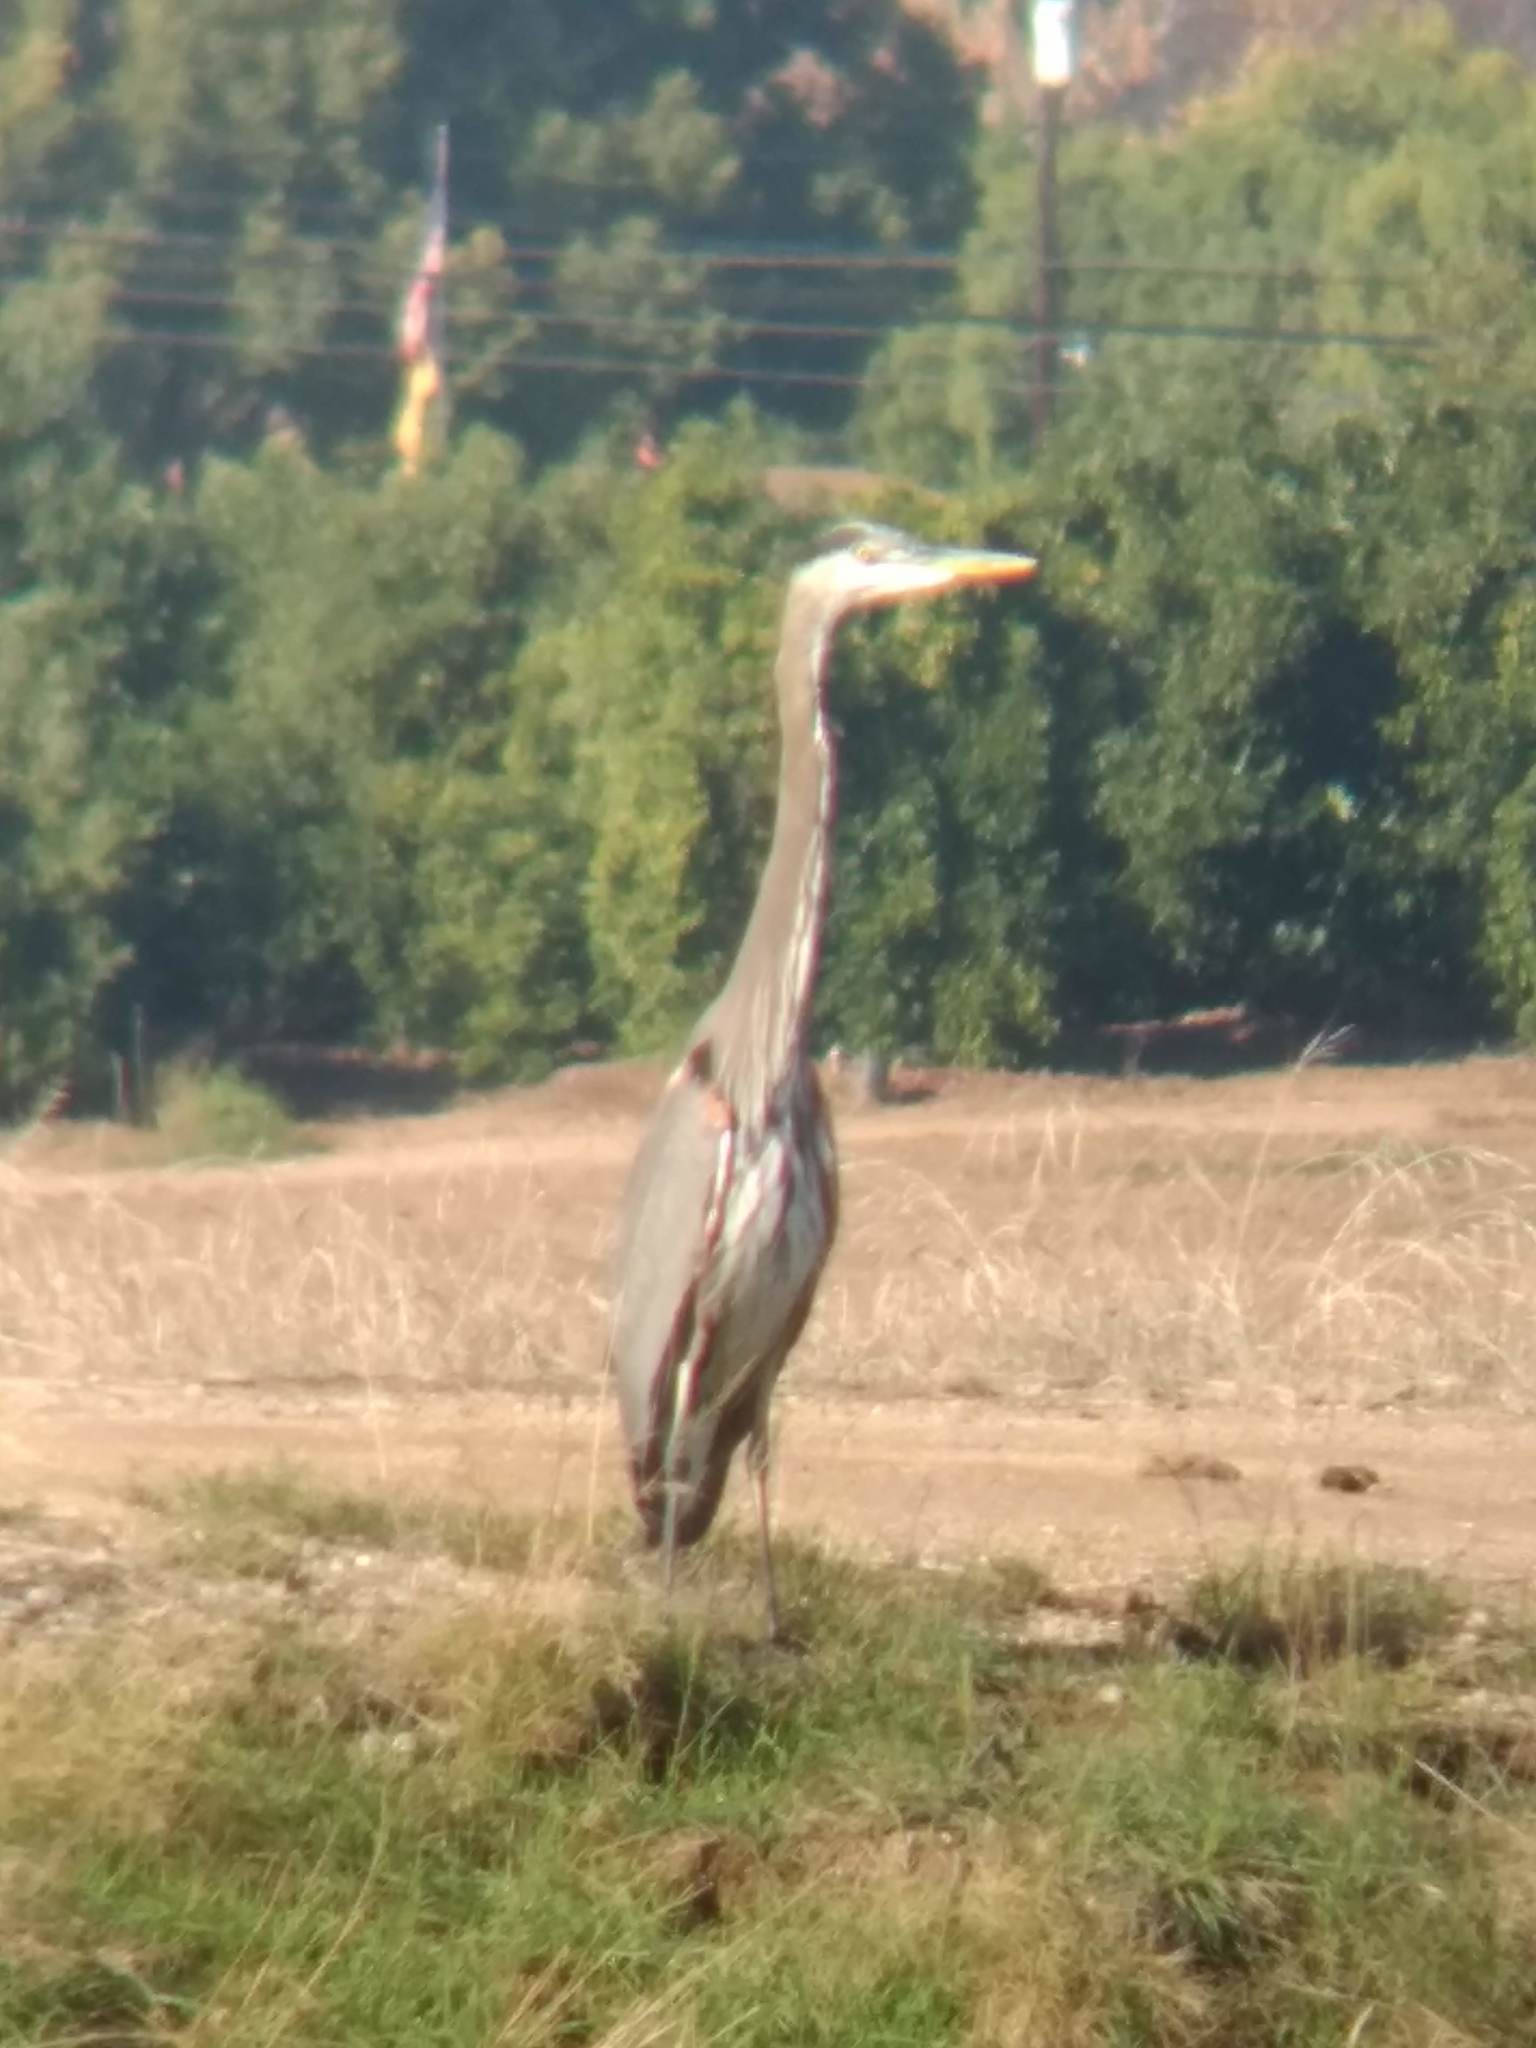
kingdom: Animalia
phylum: Chordata
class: Aves
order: Pelecaniformes
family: Ardeidae
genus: Ardea
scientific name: Ardea herodias
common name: Great blue heron
